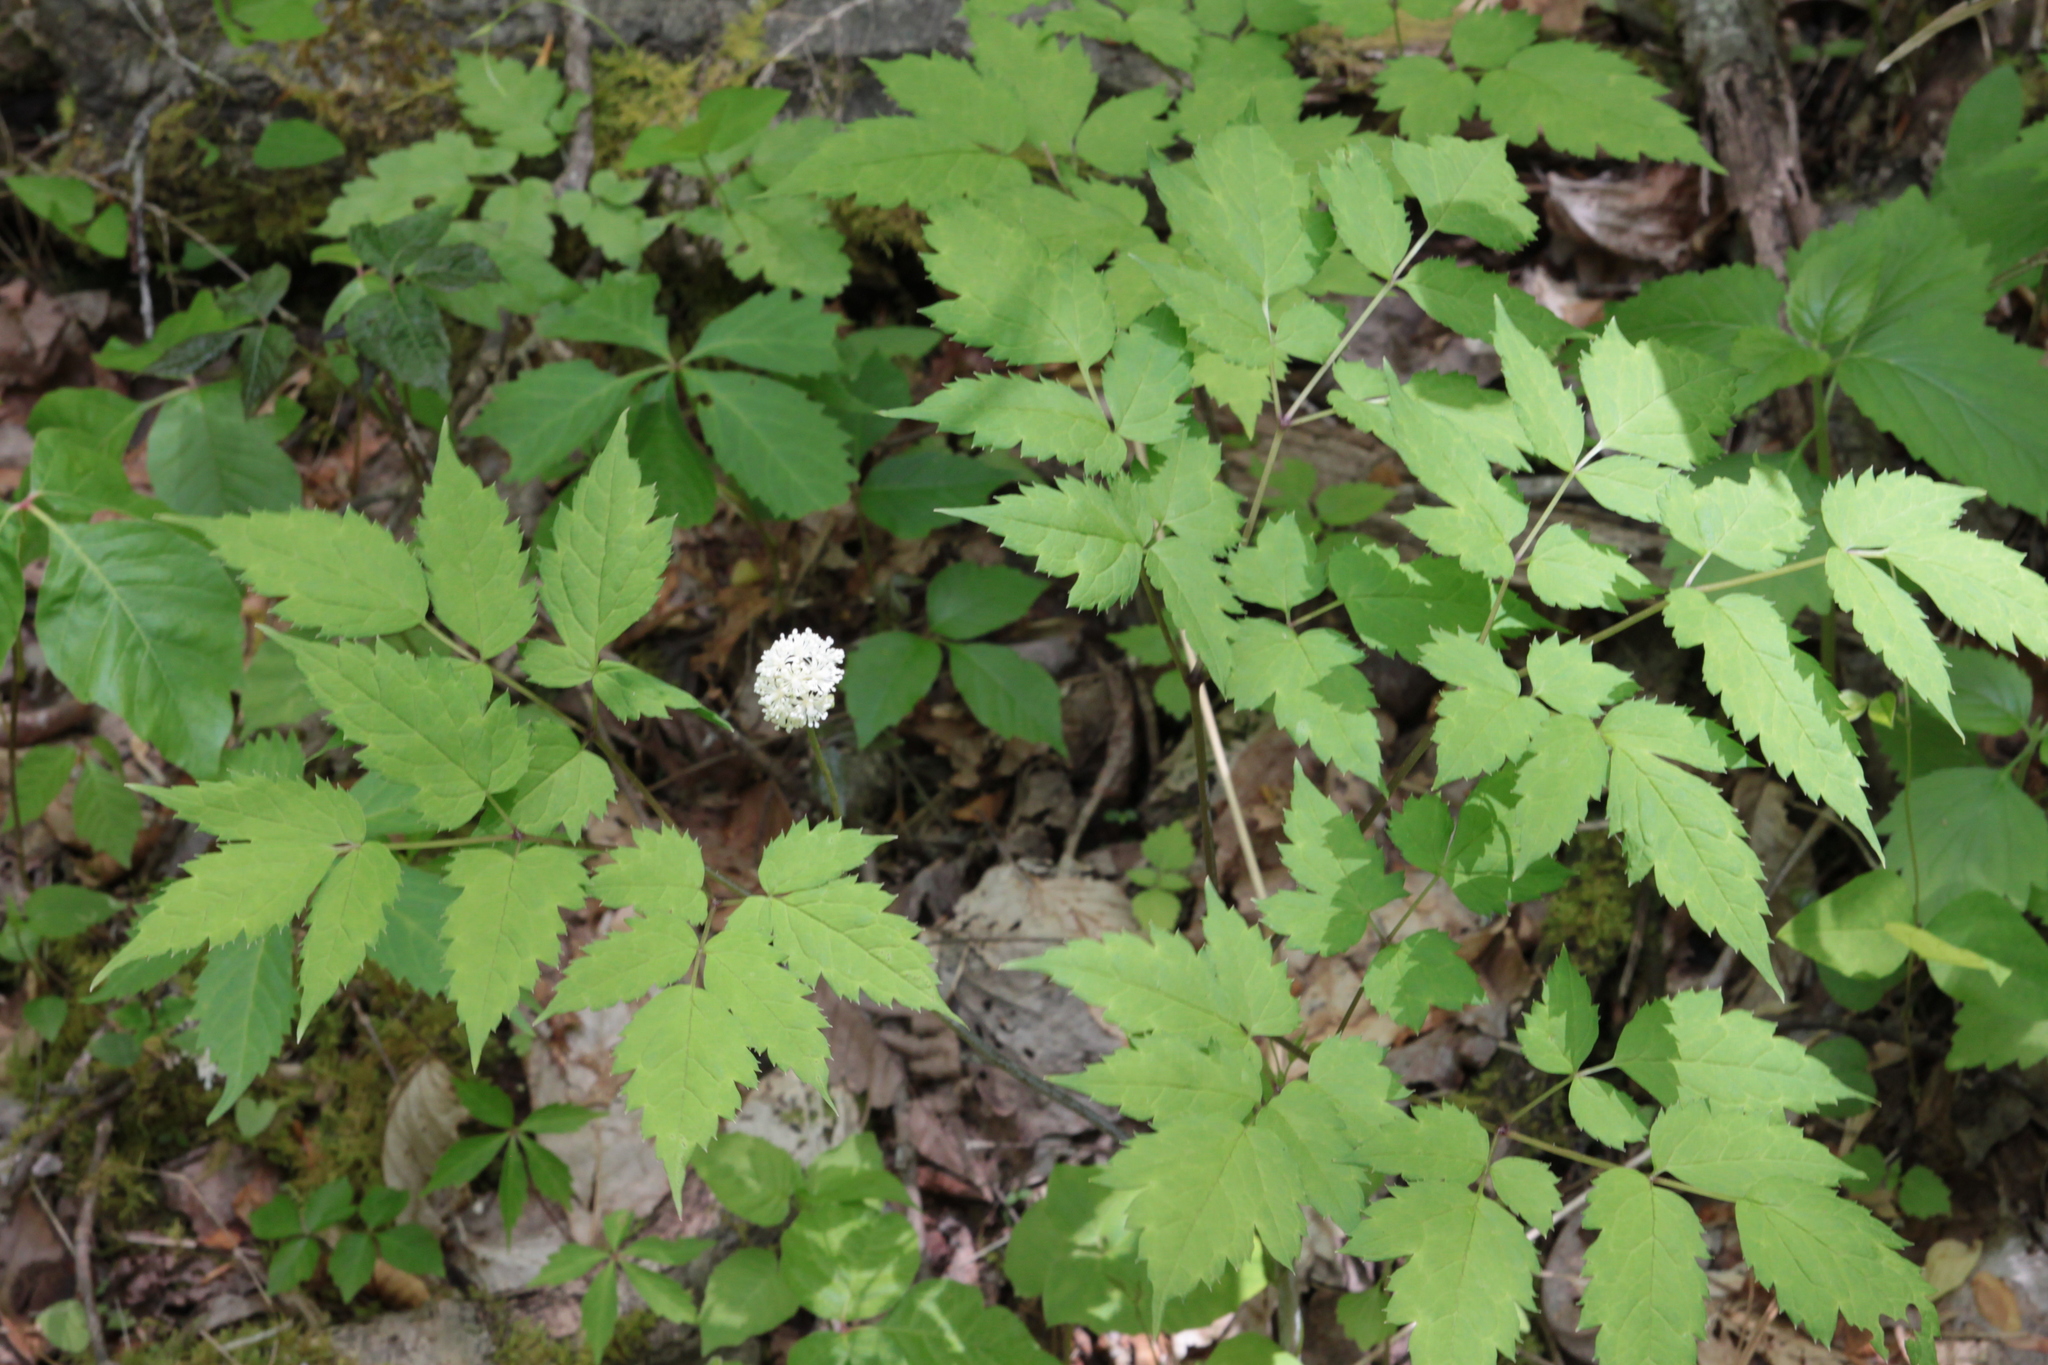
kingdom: Plantae
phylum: Tracheophyta
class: Magnoliopsida
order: Ranunculales
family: Ranunculaceae
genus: Actaea
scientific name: Actaea pachypoda
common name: Doll's-eyes
